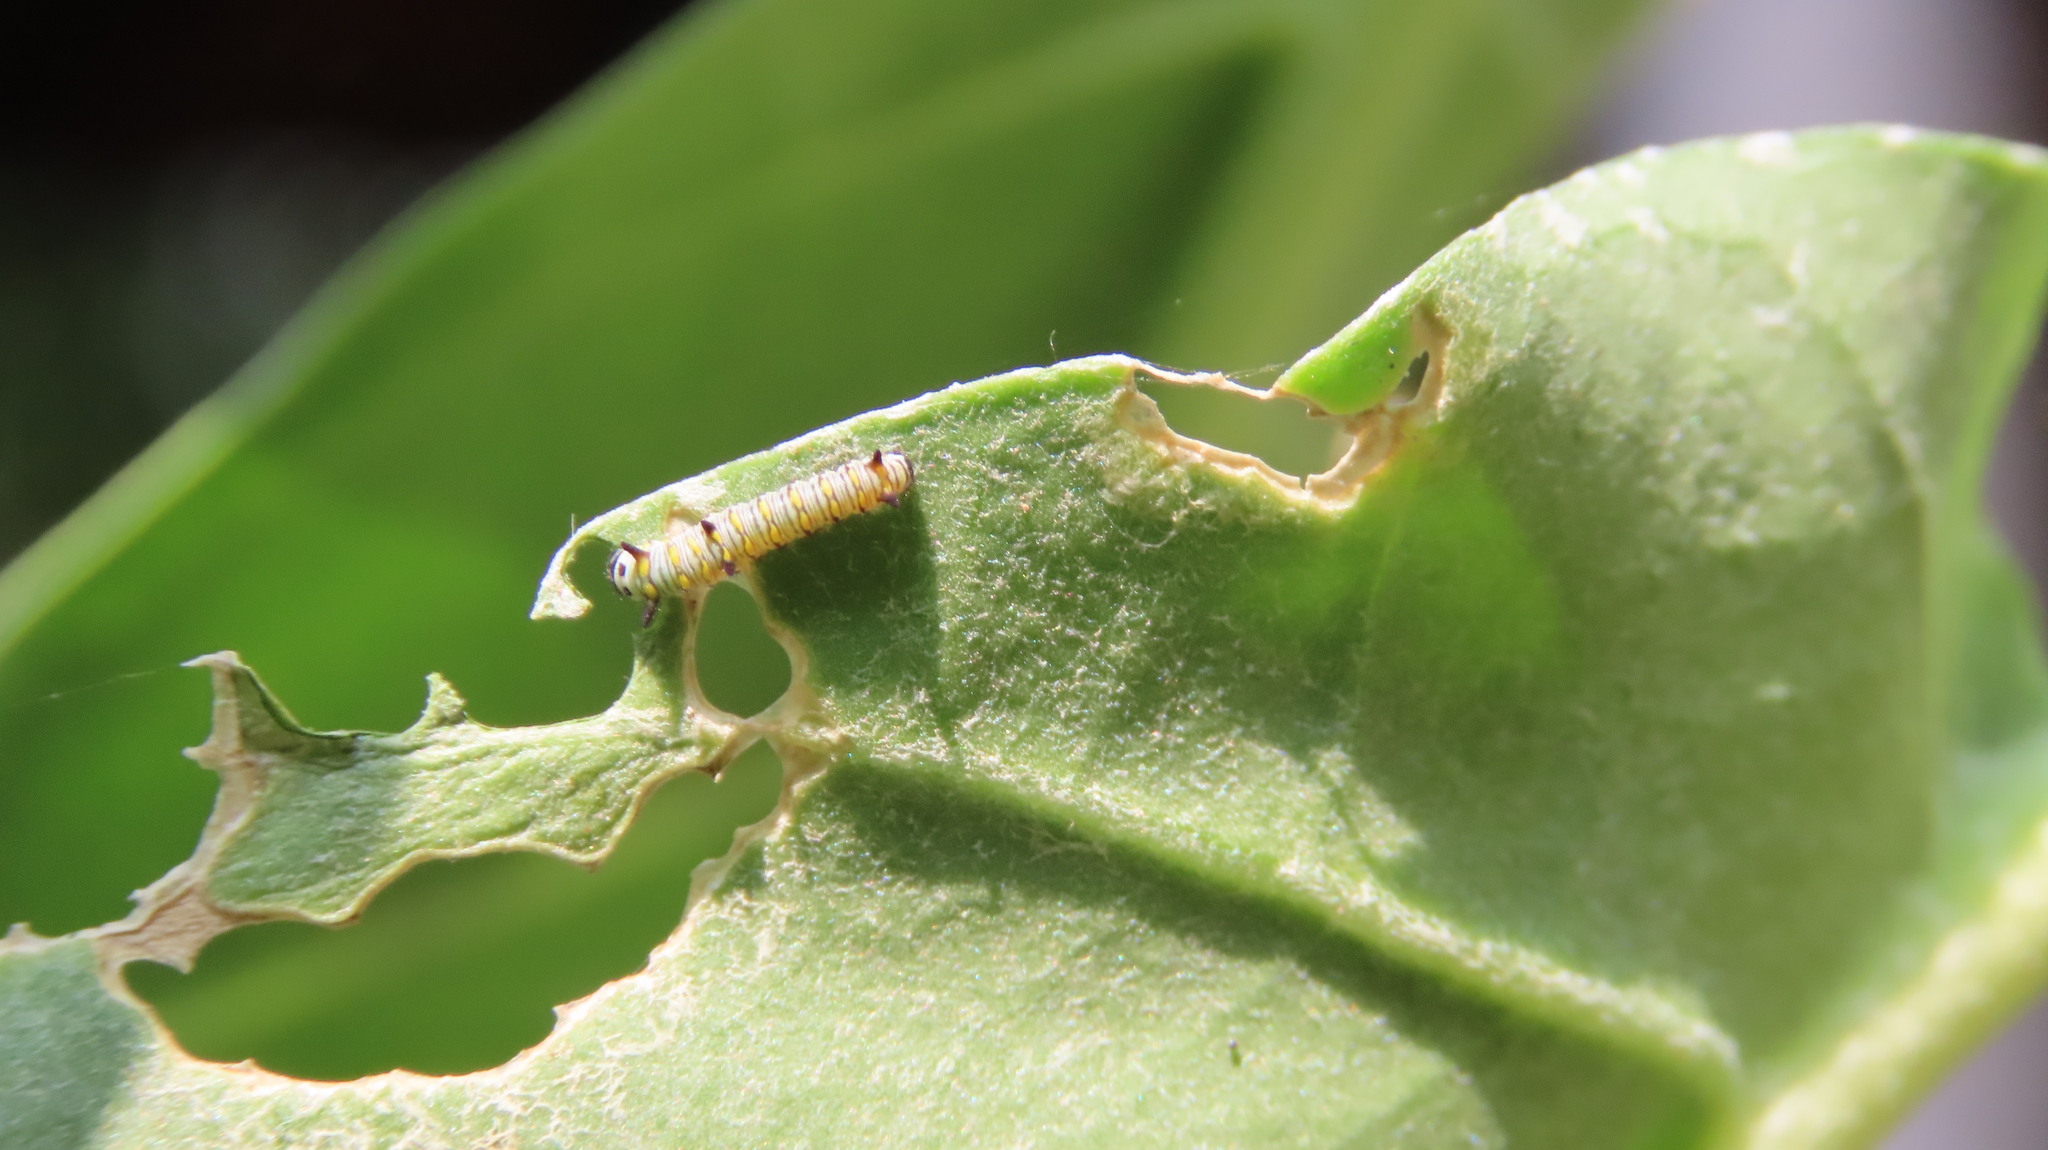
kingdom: Animalia
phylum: Arthropoda
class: Insecta
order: Lepidoptera
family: Nymphalidae
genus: Danaus
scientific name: Danaus chrysippus
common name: Plain tiger
